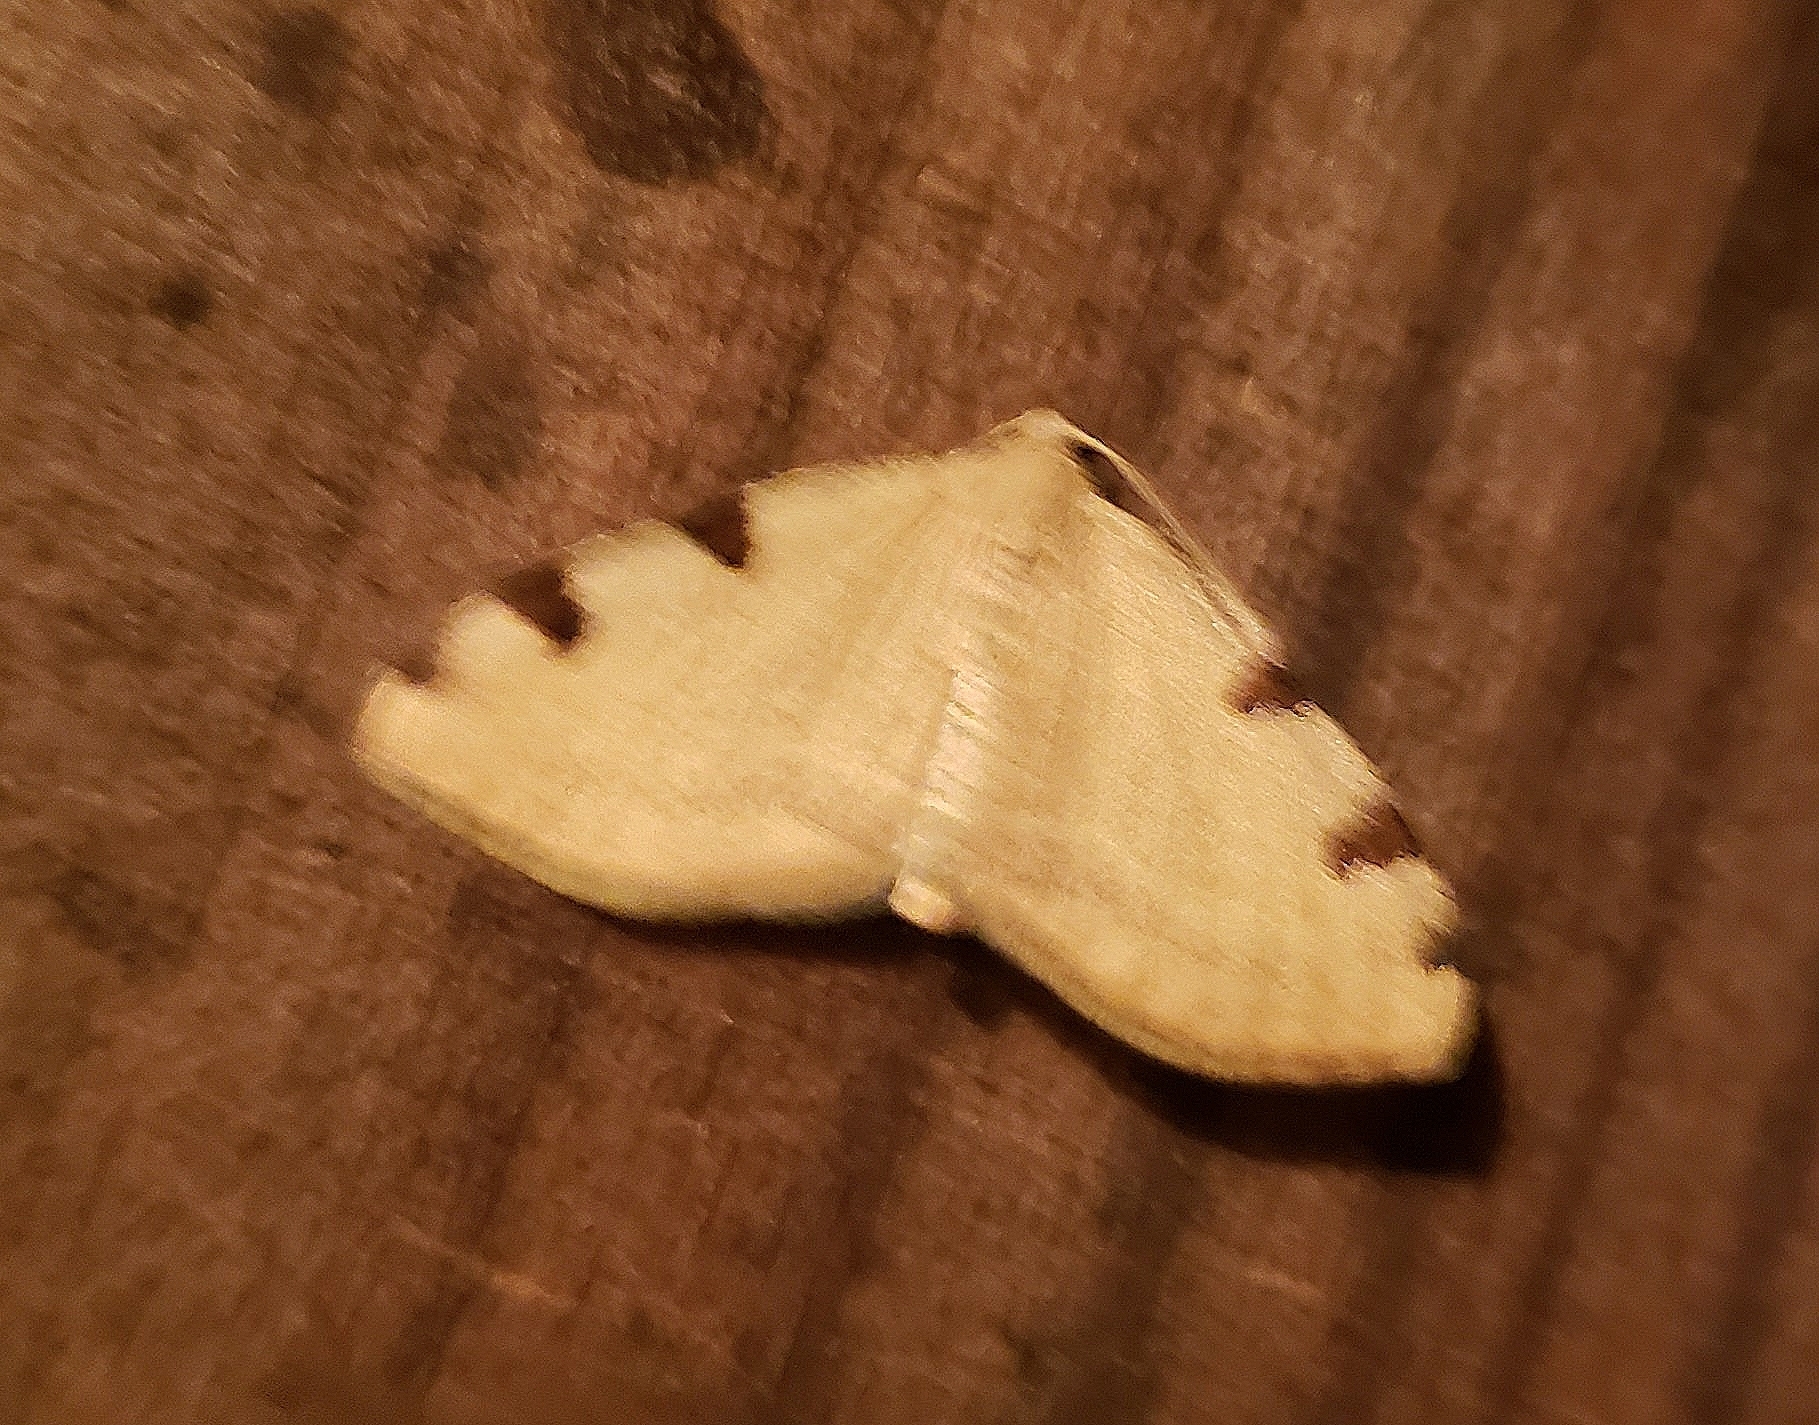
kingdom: Animalia
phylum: Arthropoda
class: Insecta
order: Lepidoptera
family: Geometridae
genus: Heterophleps
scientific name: Heterophleps triguttaria
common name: Three-spotted fillip
